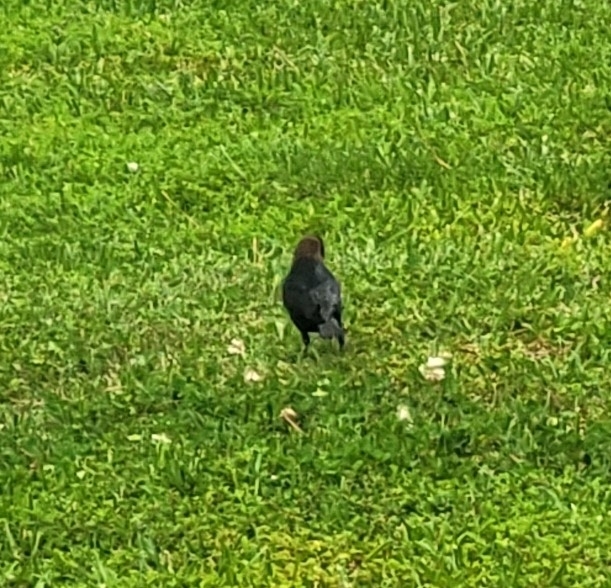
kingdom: Animalia
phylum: Chordata
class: Aves
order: Passeriformes
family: Icteridae
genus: Molothrus
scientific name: Molothrus ater
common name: Brown-headed cowbird
